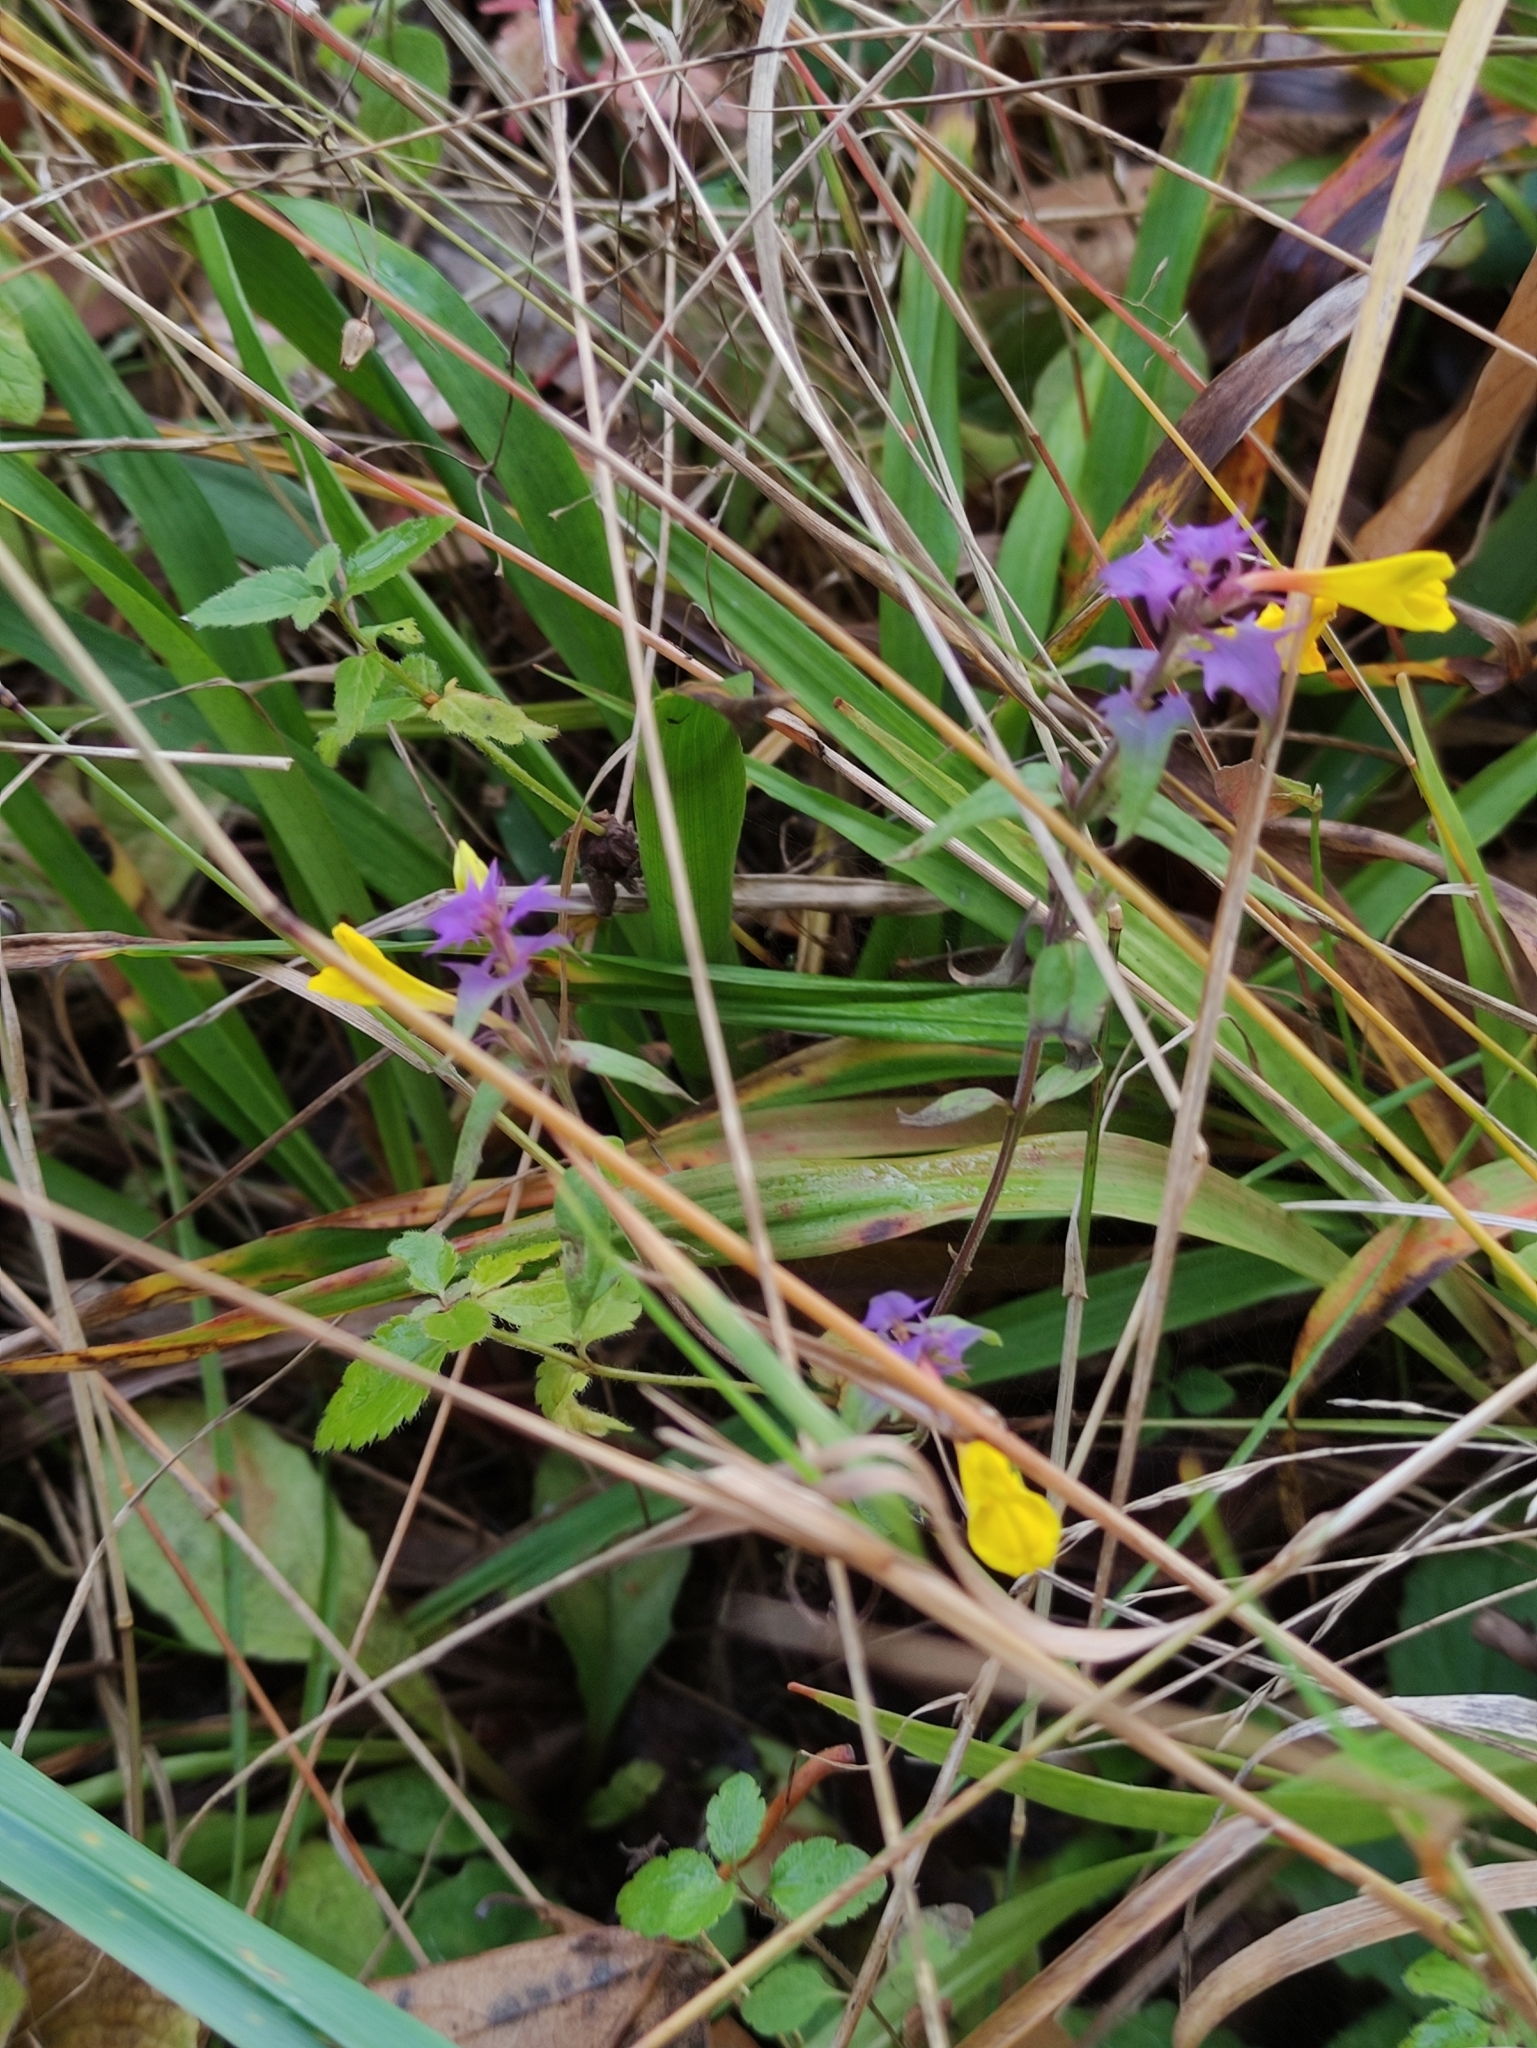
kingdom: Plantae
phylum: Tracheophyta
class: Magnoliopsida
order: Lamiales
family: Orobanchaceae
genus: Melampyrum
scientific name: Melampyrum nemorosum
